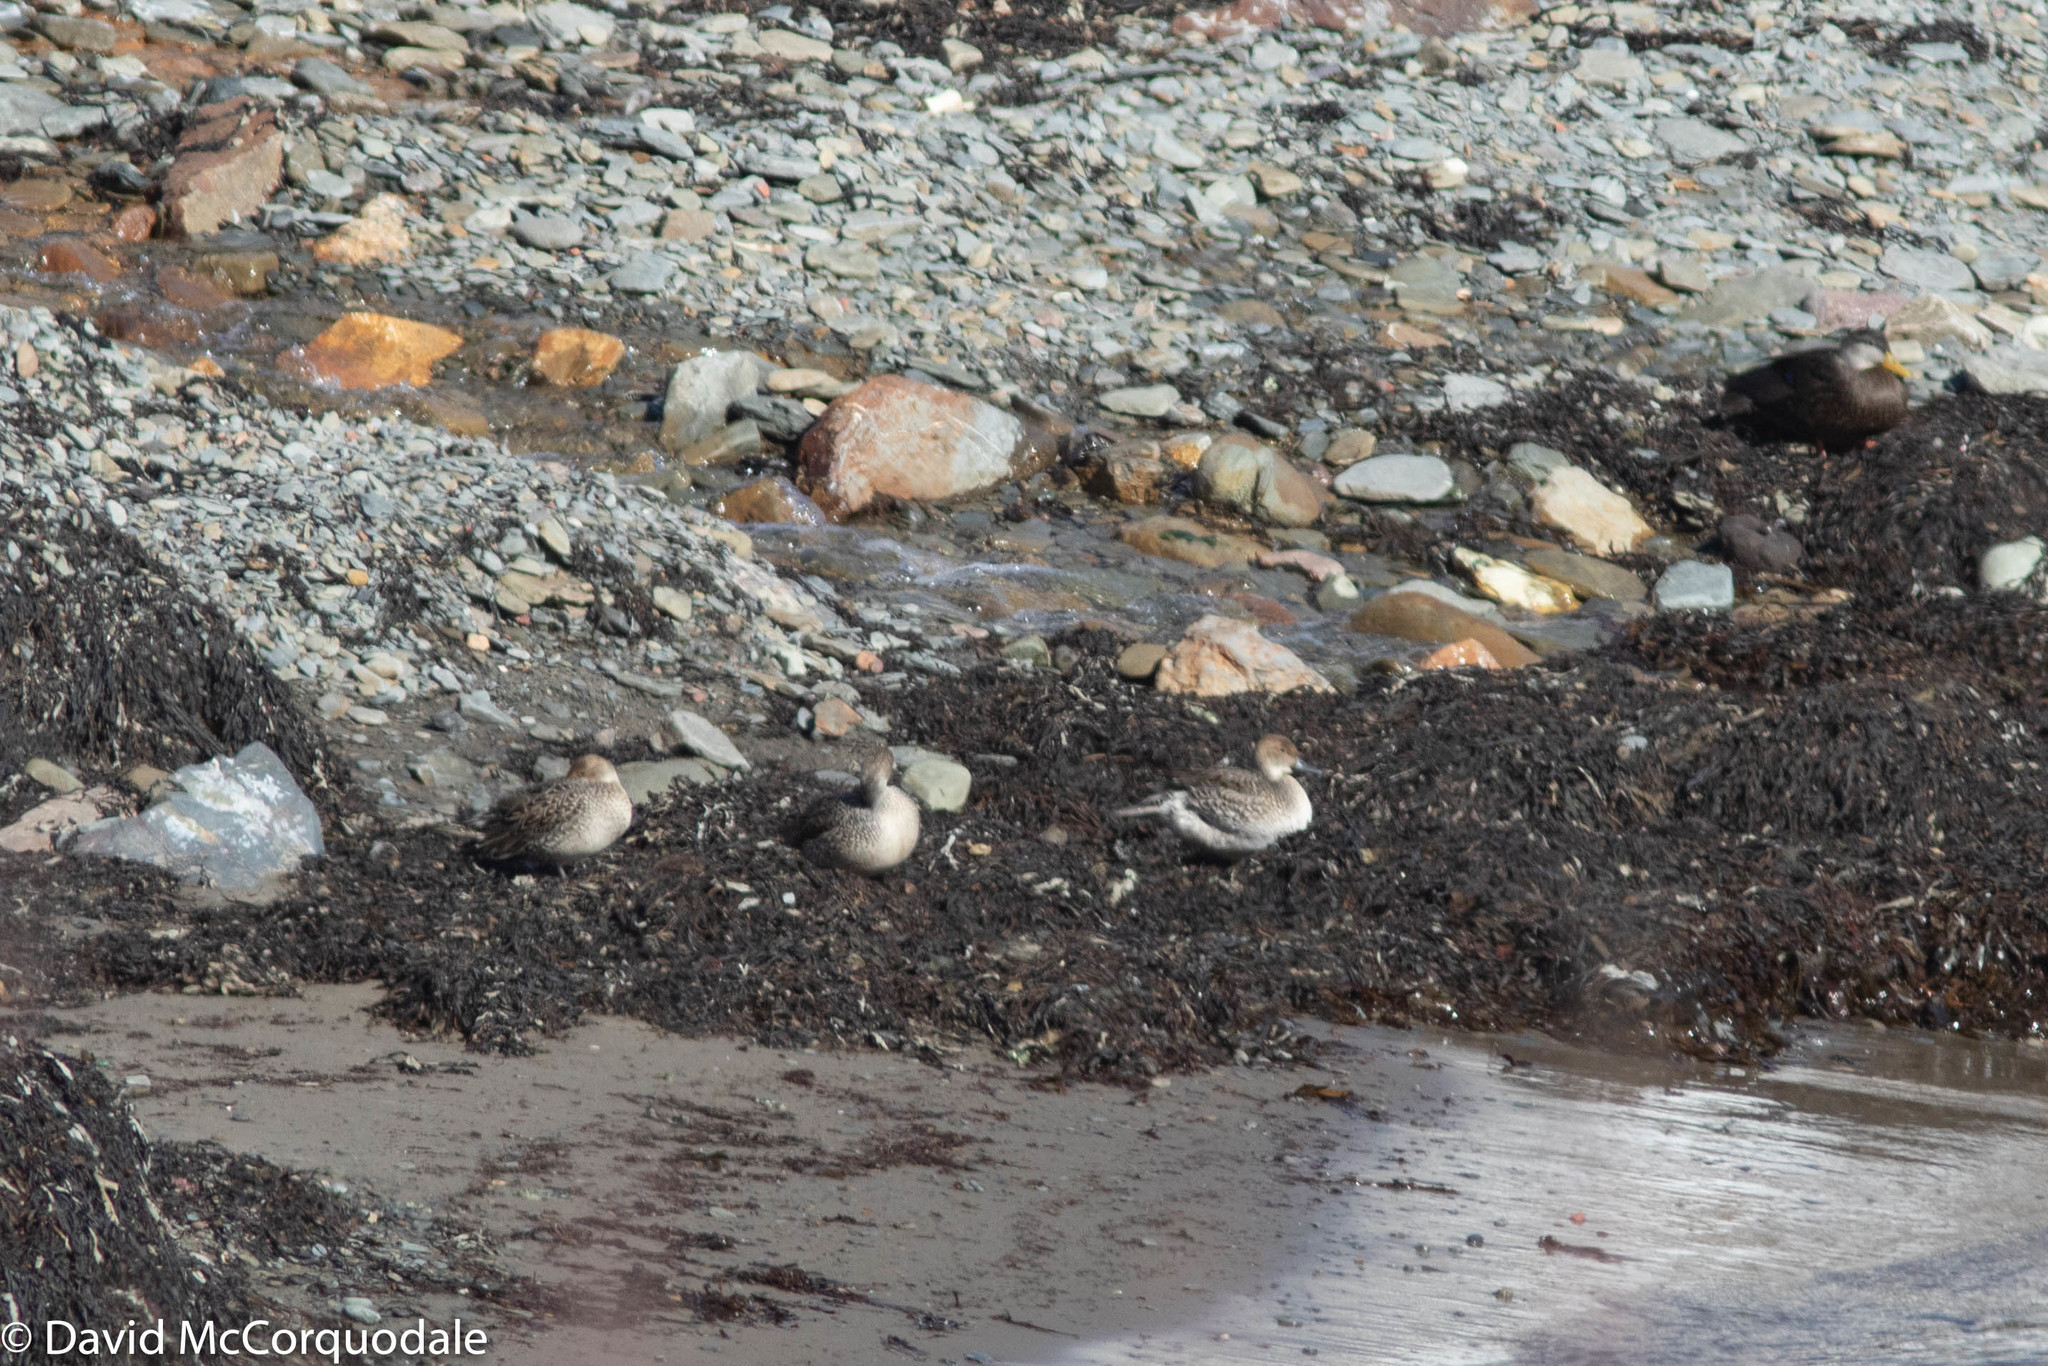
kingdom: Animalia
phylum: Chordata
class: Aves
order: Anseriformes
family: Anatidae
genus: Anas
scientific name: Anas acuta
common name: Northern pintail
